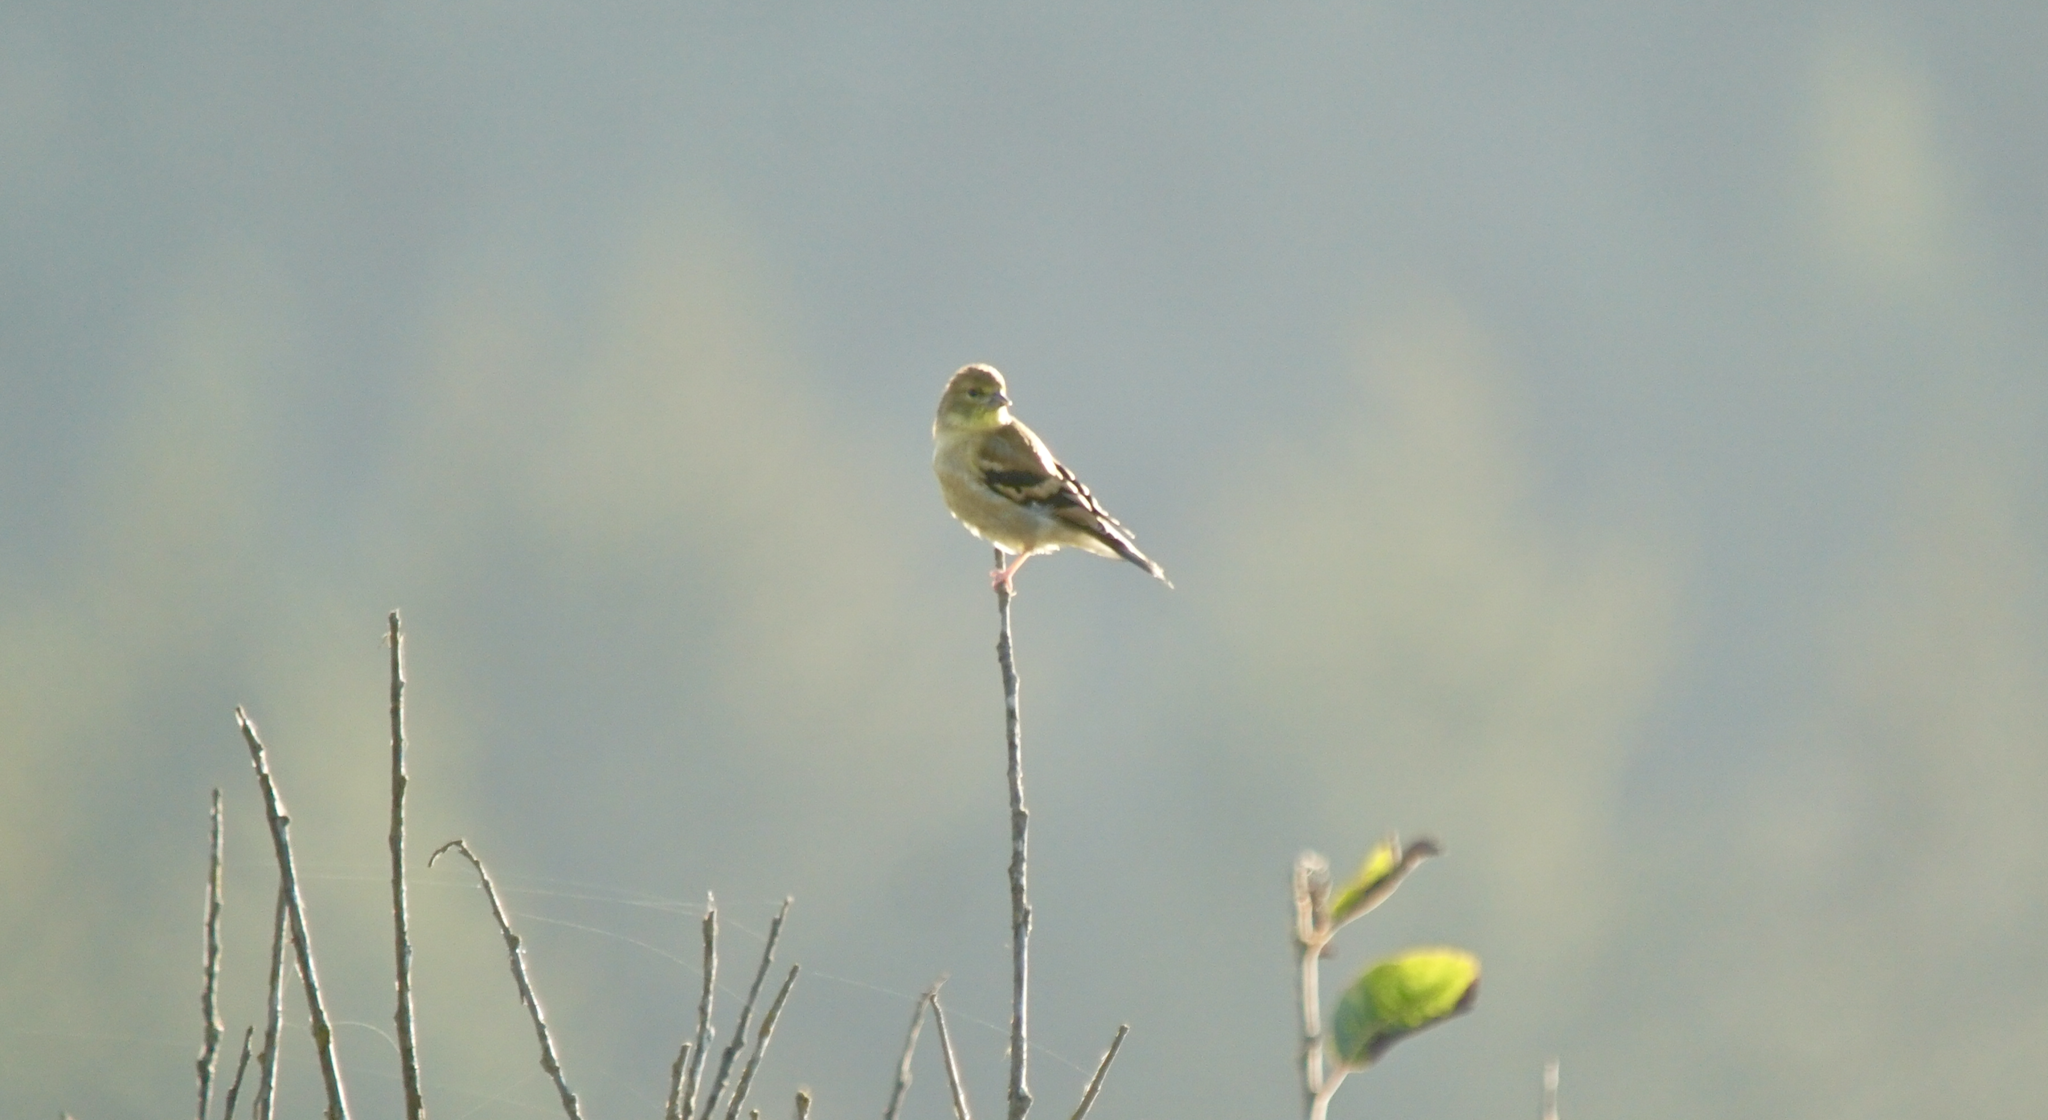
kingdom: Animalia
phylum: Chordata
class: Aves
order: Passeriformes
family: Fringillidae
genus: Spinus
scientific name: Spinus tristis
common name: American goldfinch
